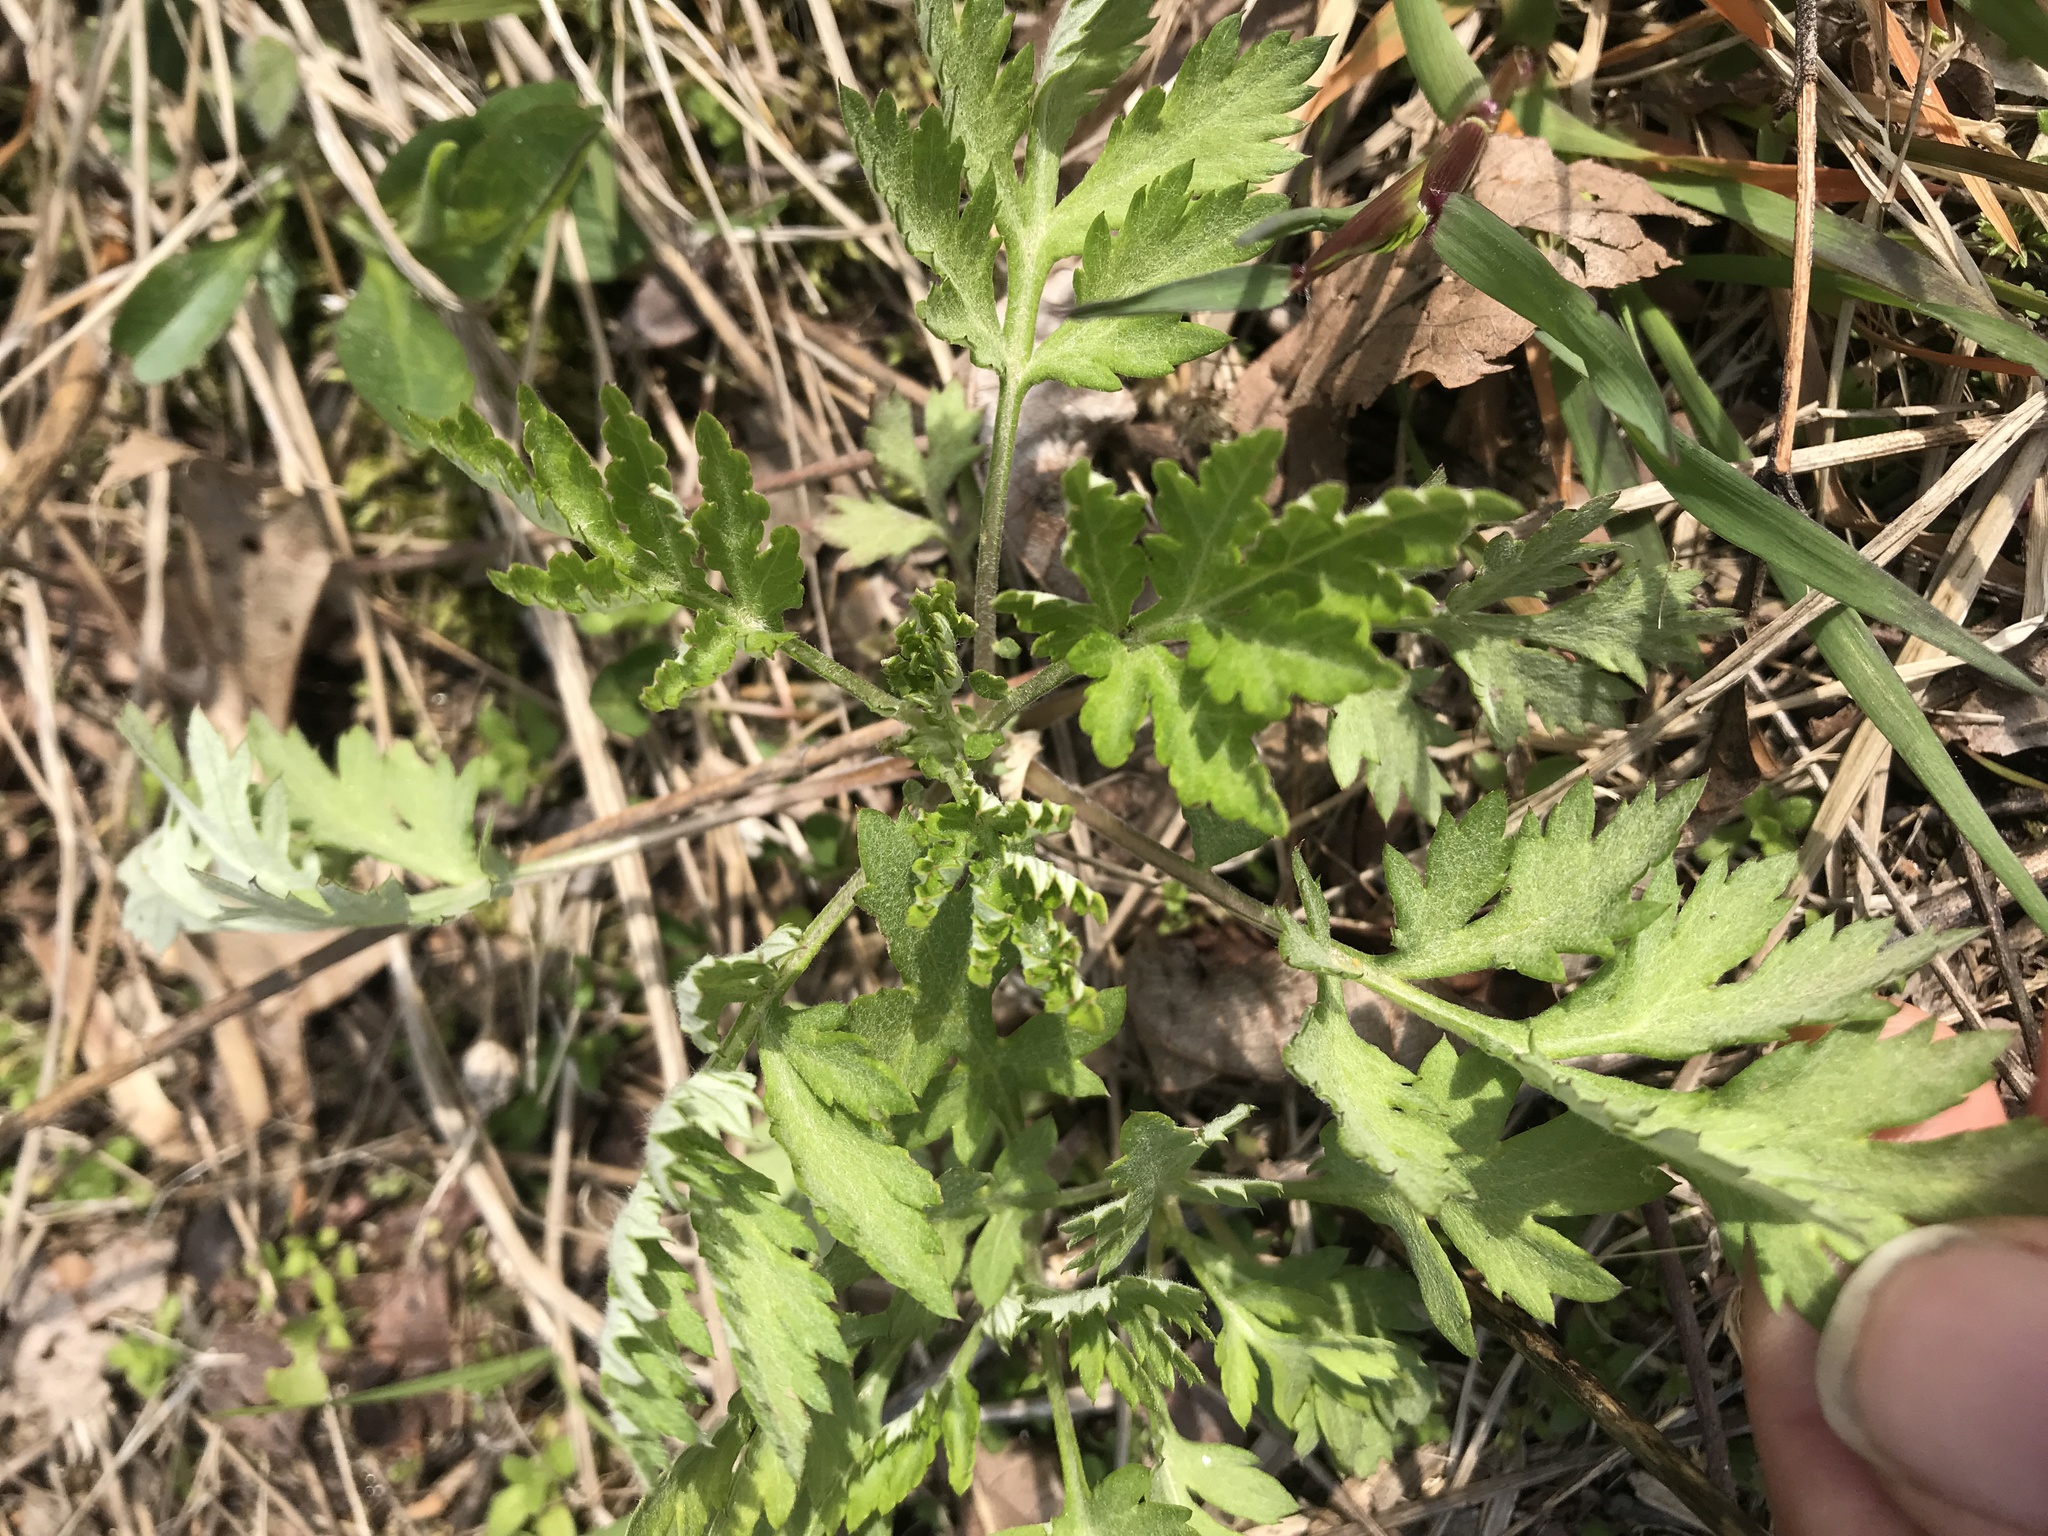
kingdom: Plantae
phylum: Tracheophyta
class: Magnoliopsida
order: Asterales
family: Asteraceae
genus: Artemisia
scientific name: Artemisia vulgaris
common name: Mugwort
